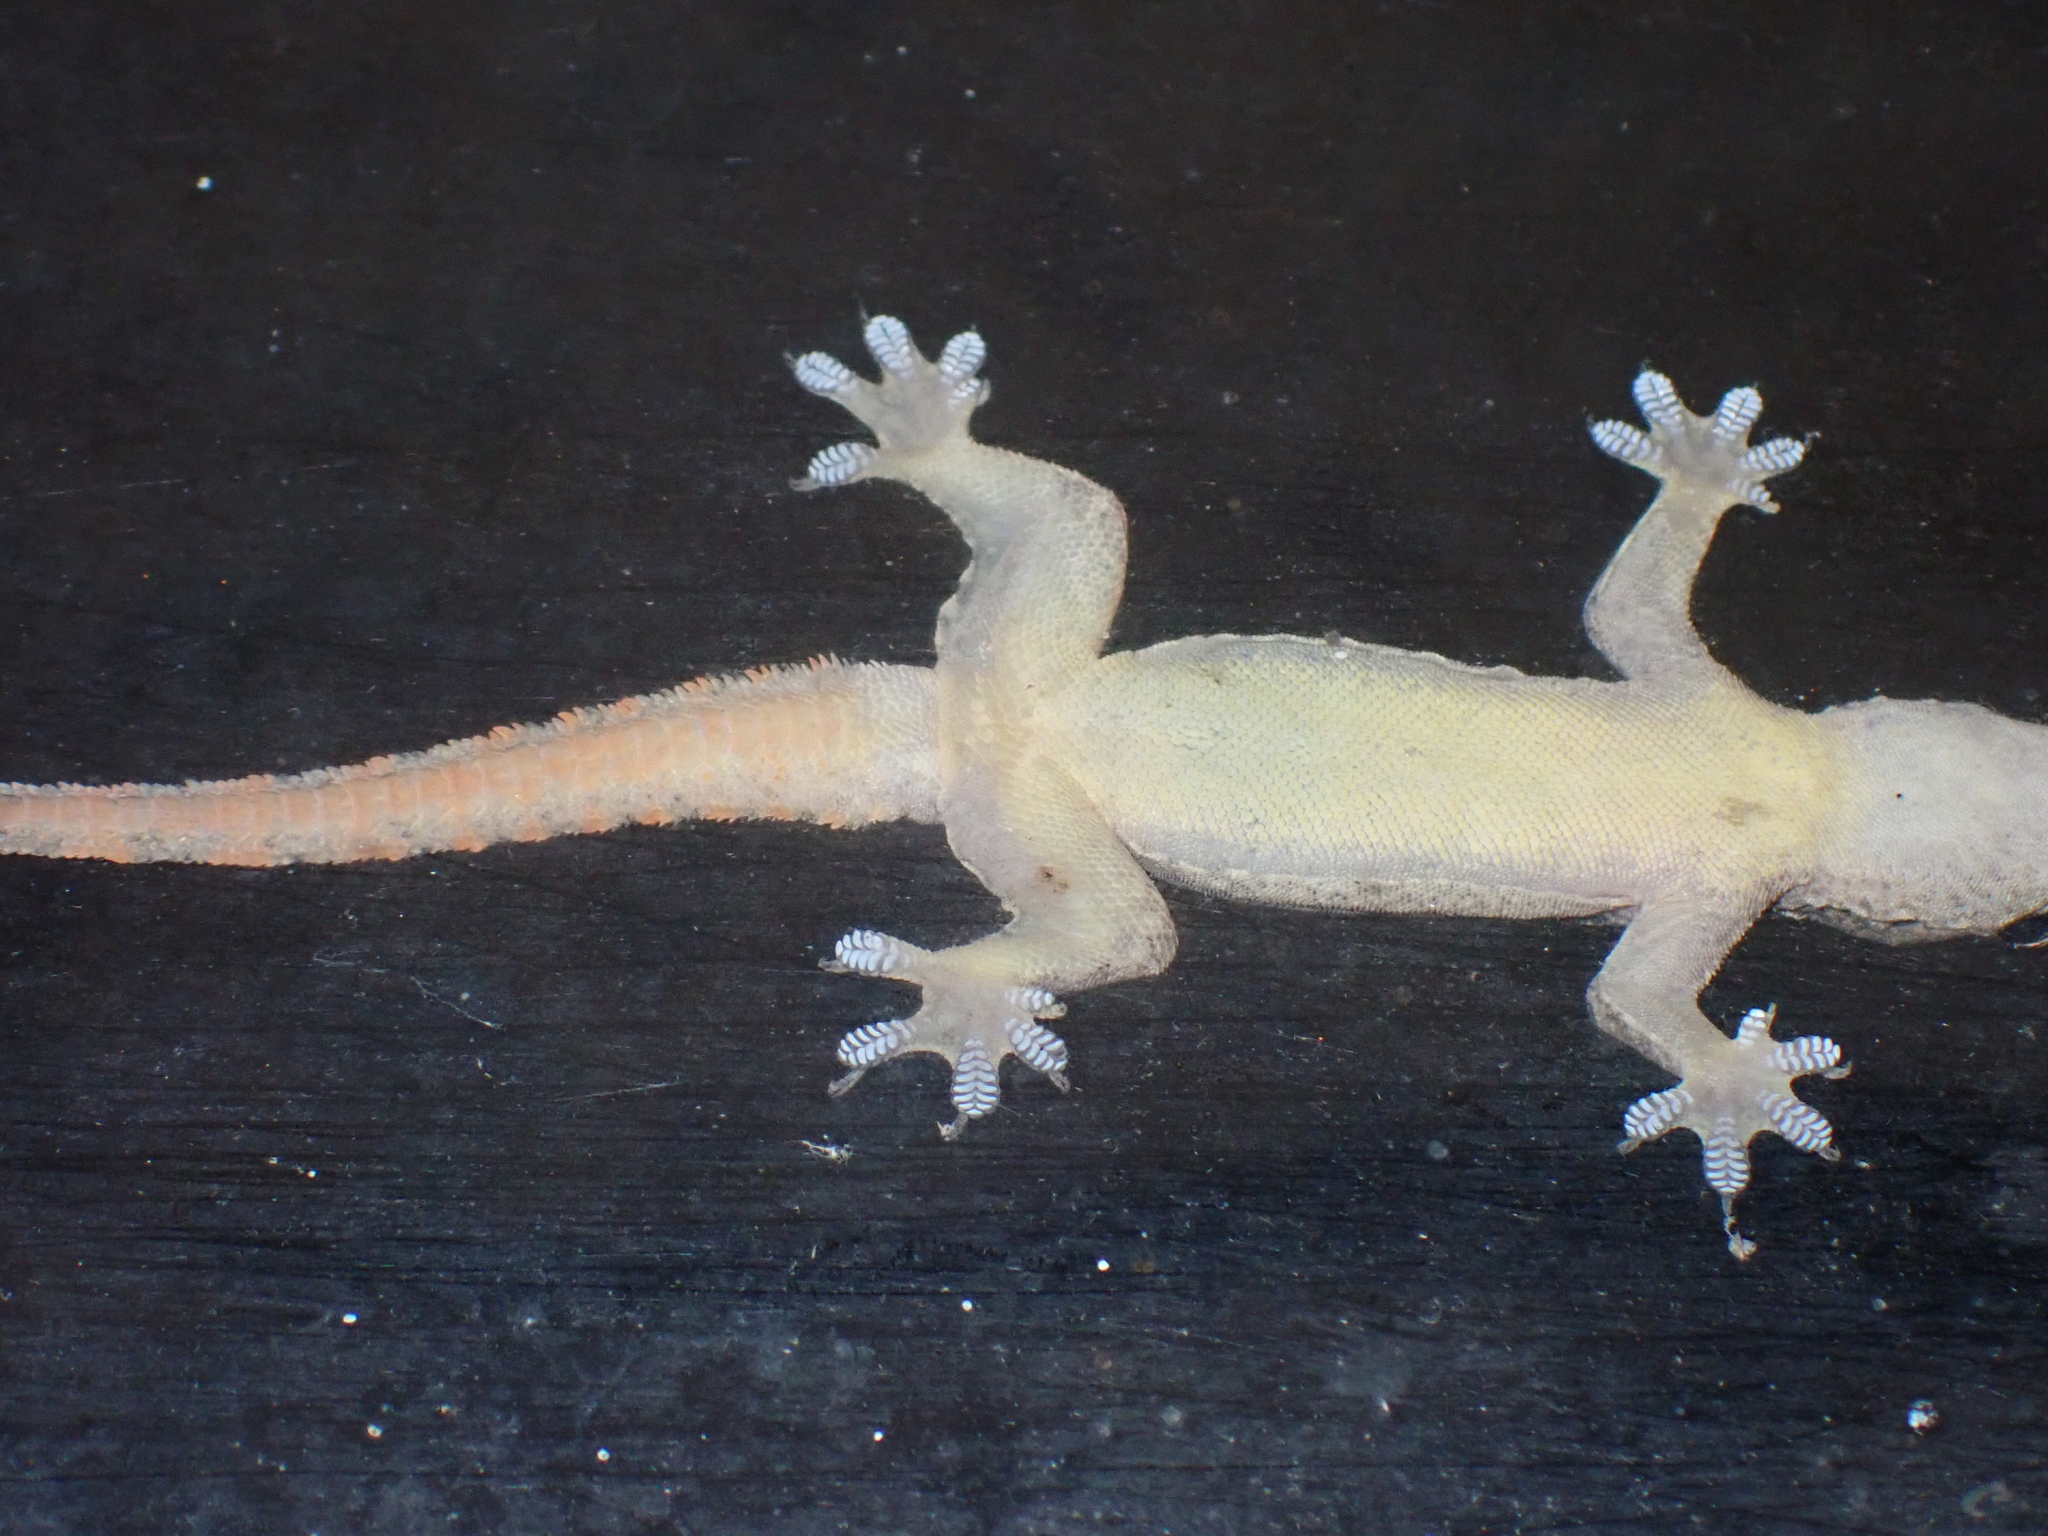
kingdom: Animalia
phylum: Chordata
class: Squamata
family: Gekkonidae
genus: Hemidactylus
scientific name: Hemidactylus platyurus
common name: Flat-tailed house gecko
